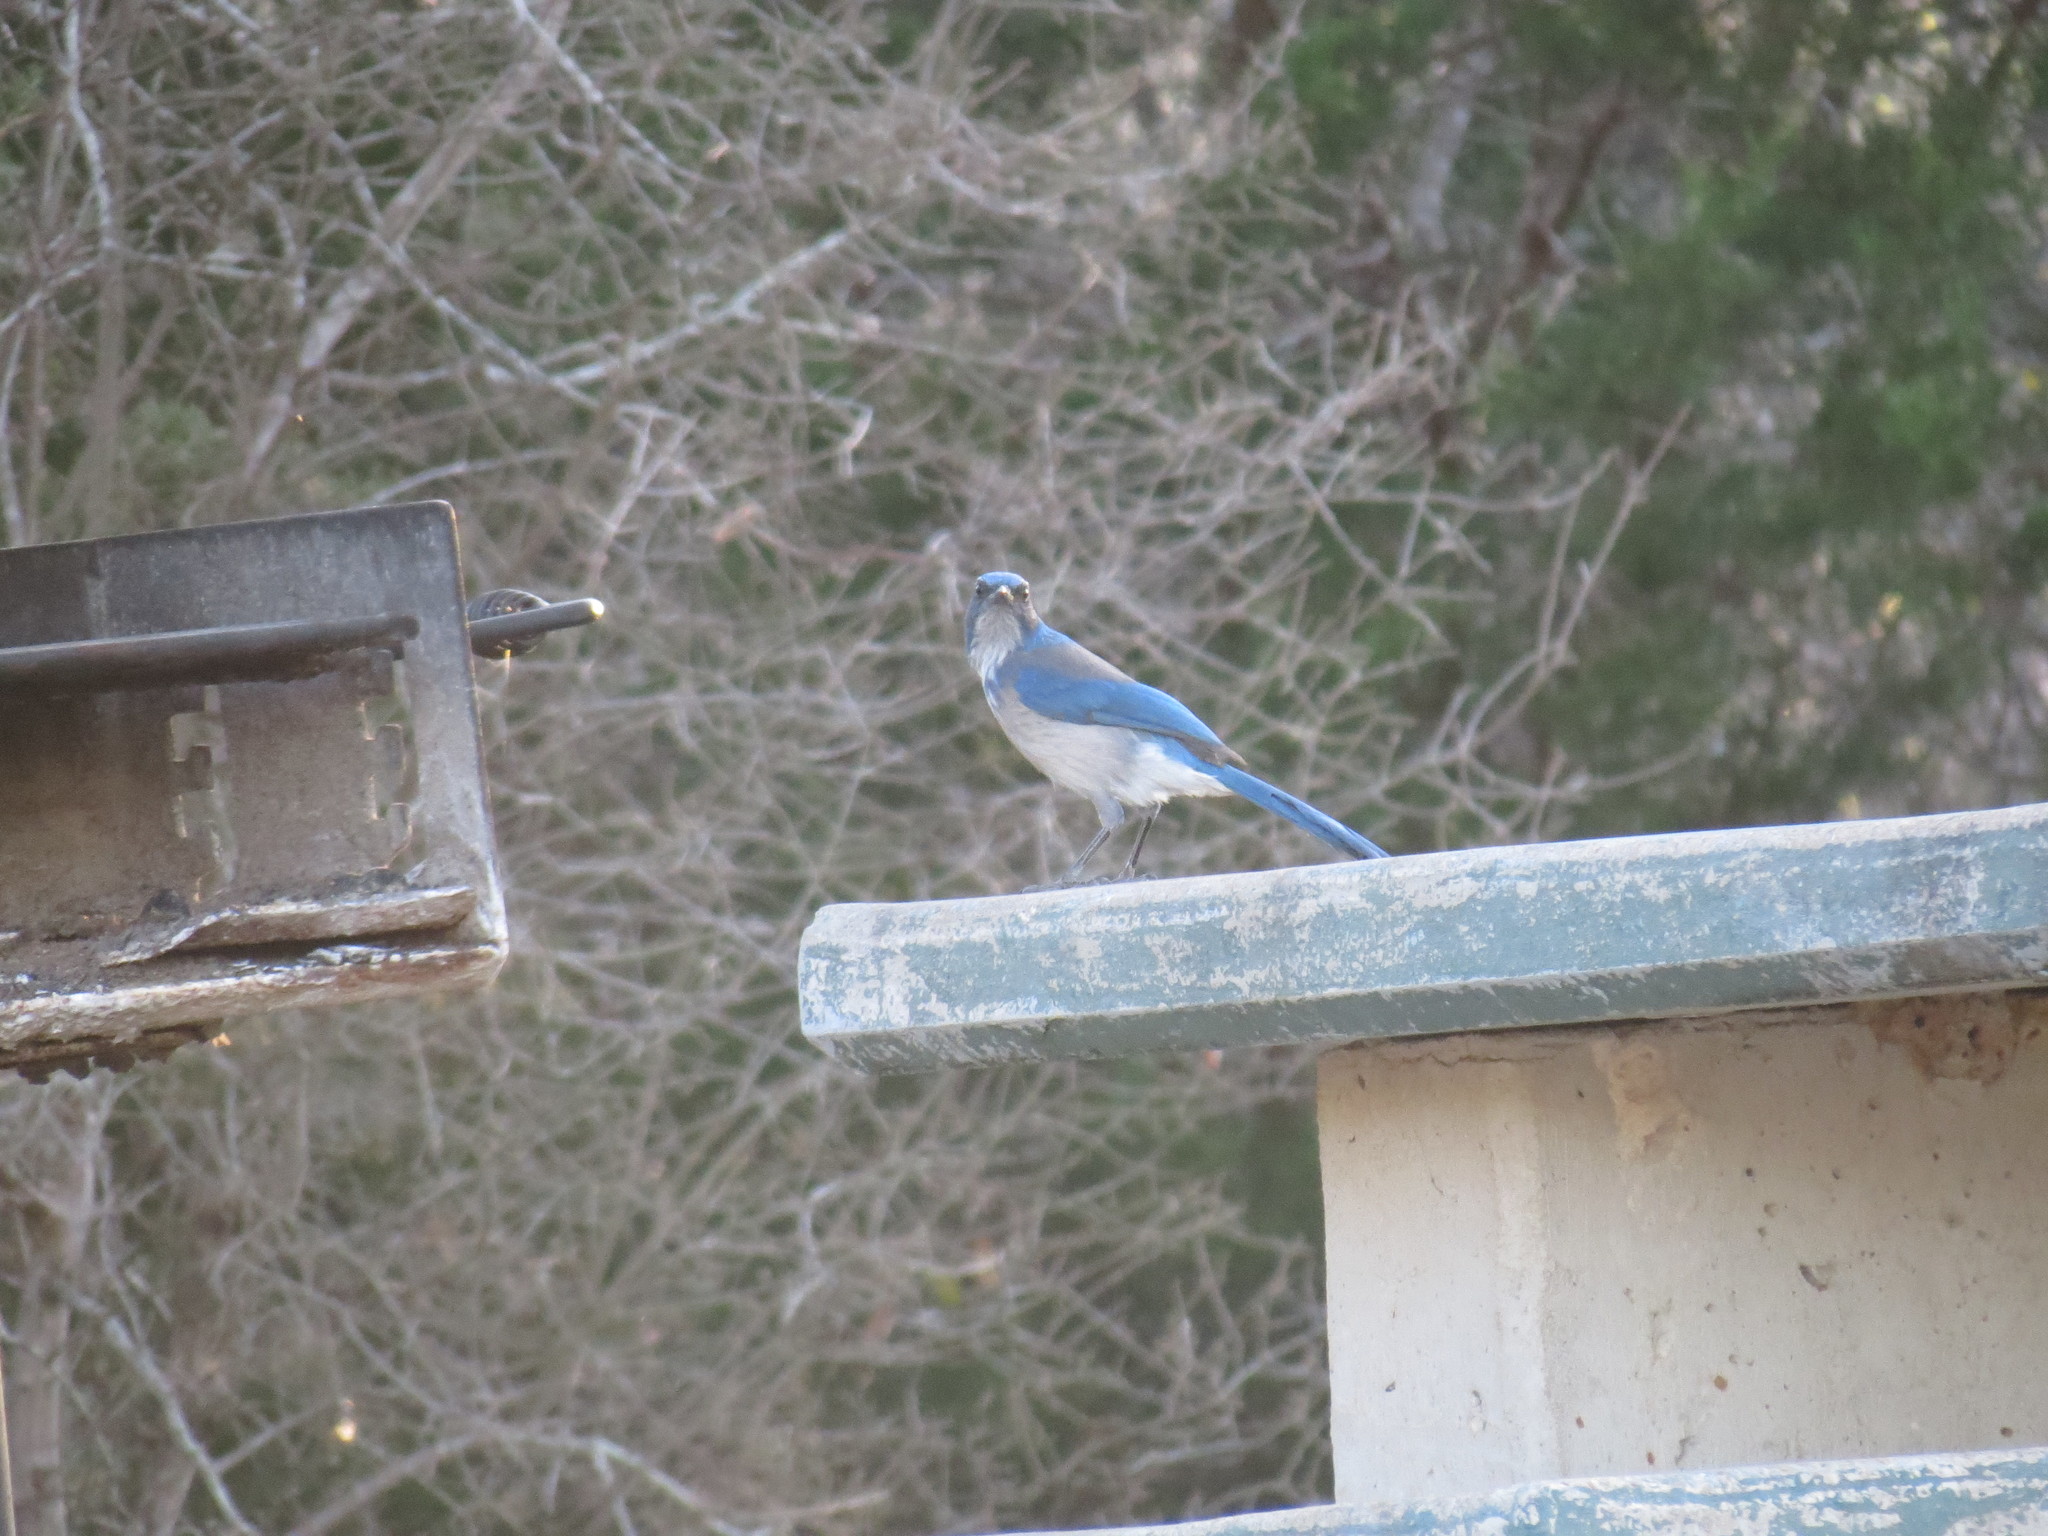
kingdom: Animalia
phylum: Chordata
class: Aves
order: Passeriformes
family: Corvidae
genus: Aphelocoma
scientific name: Aphelocoma woodhouseii
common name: Woodhouse's scrub-jay
